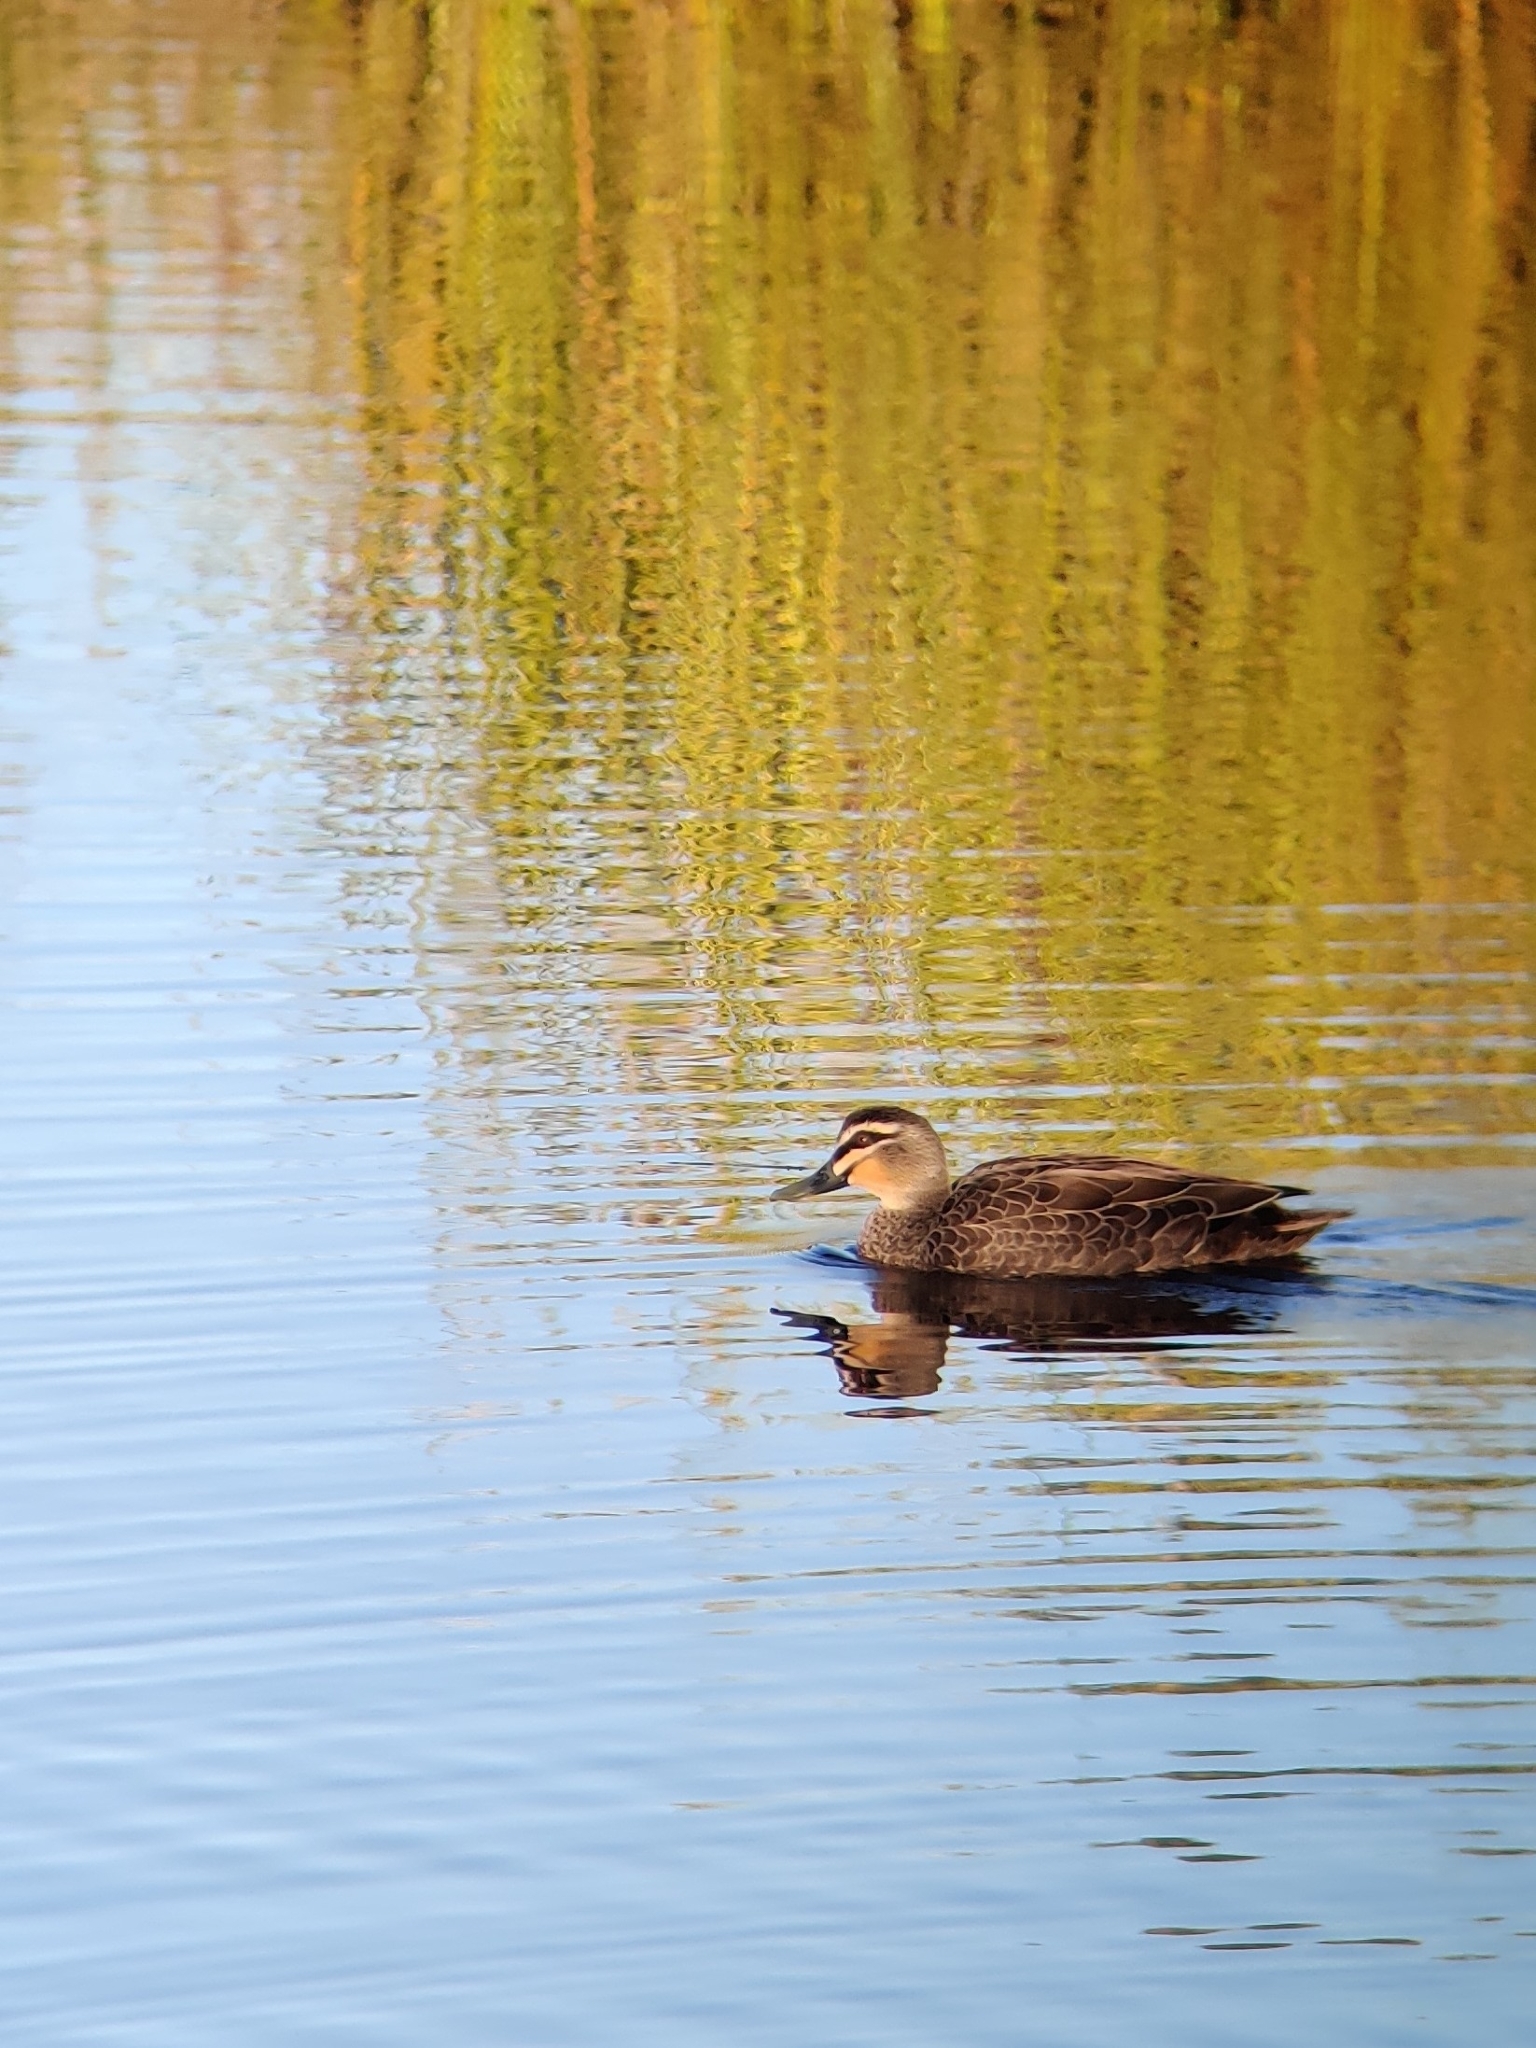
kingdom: Animalia
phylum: Chordata
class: Aves
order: Anseriformes
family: Anatidae
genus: Anas
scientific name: Anas superciliosa
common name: Pacific black duck
